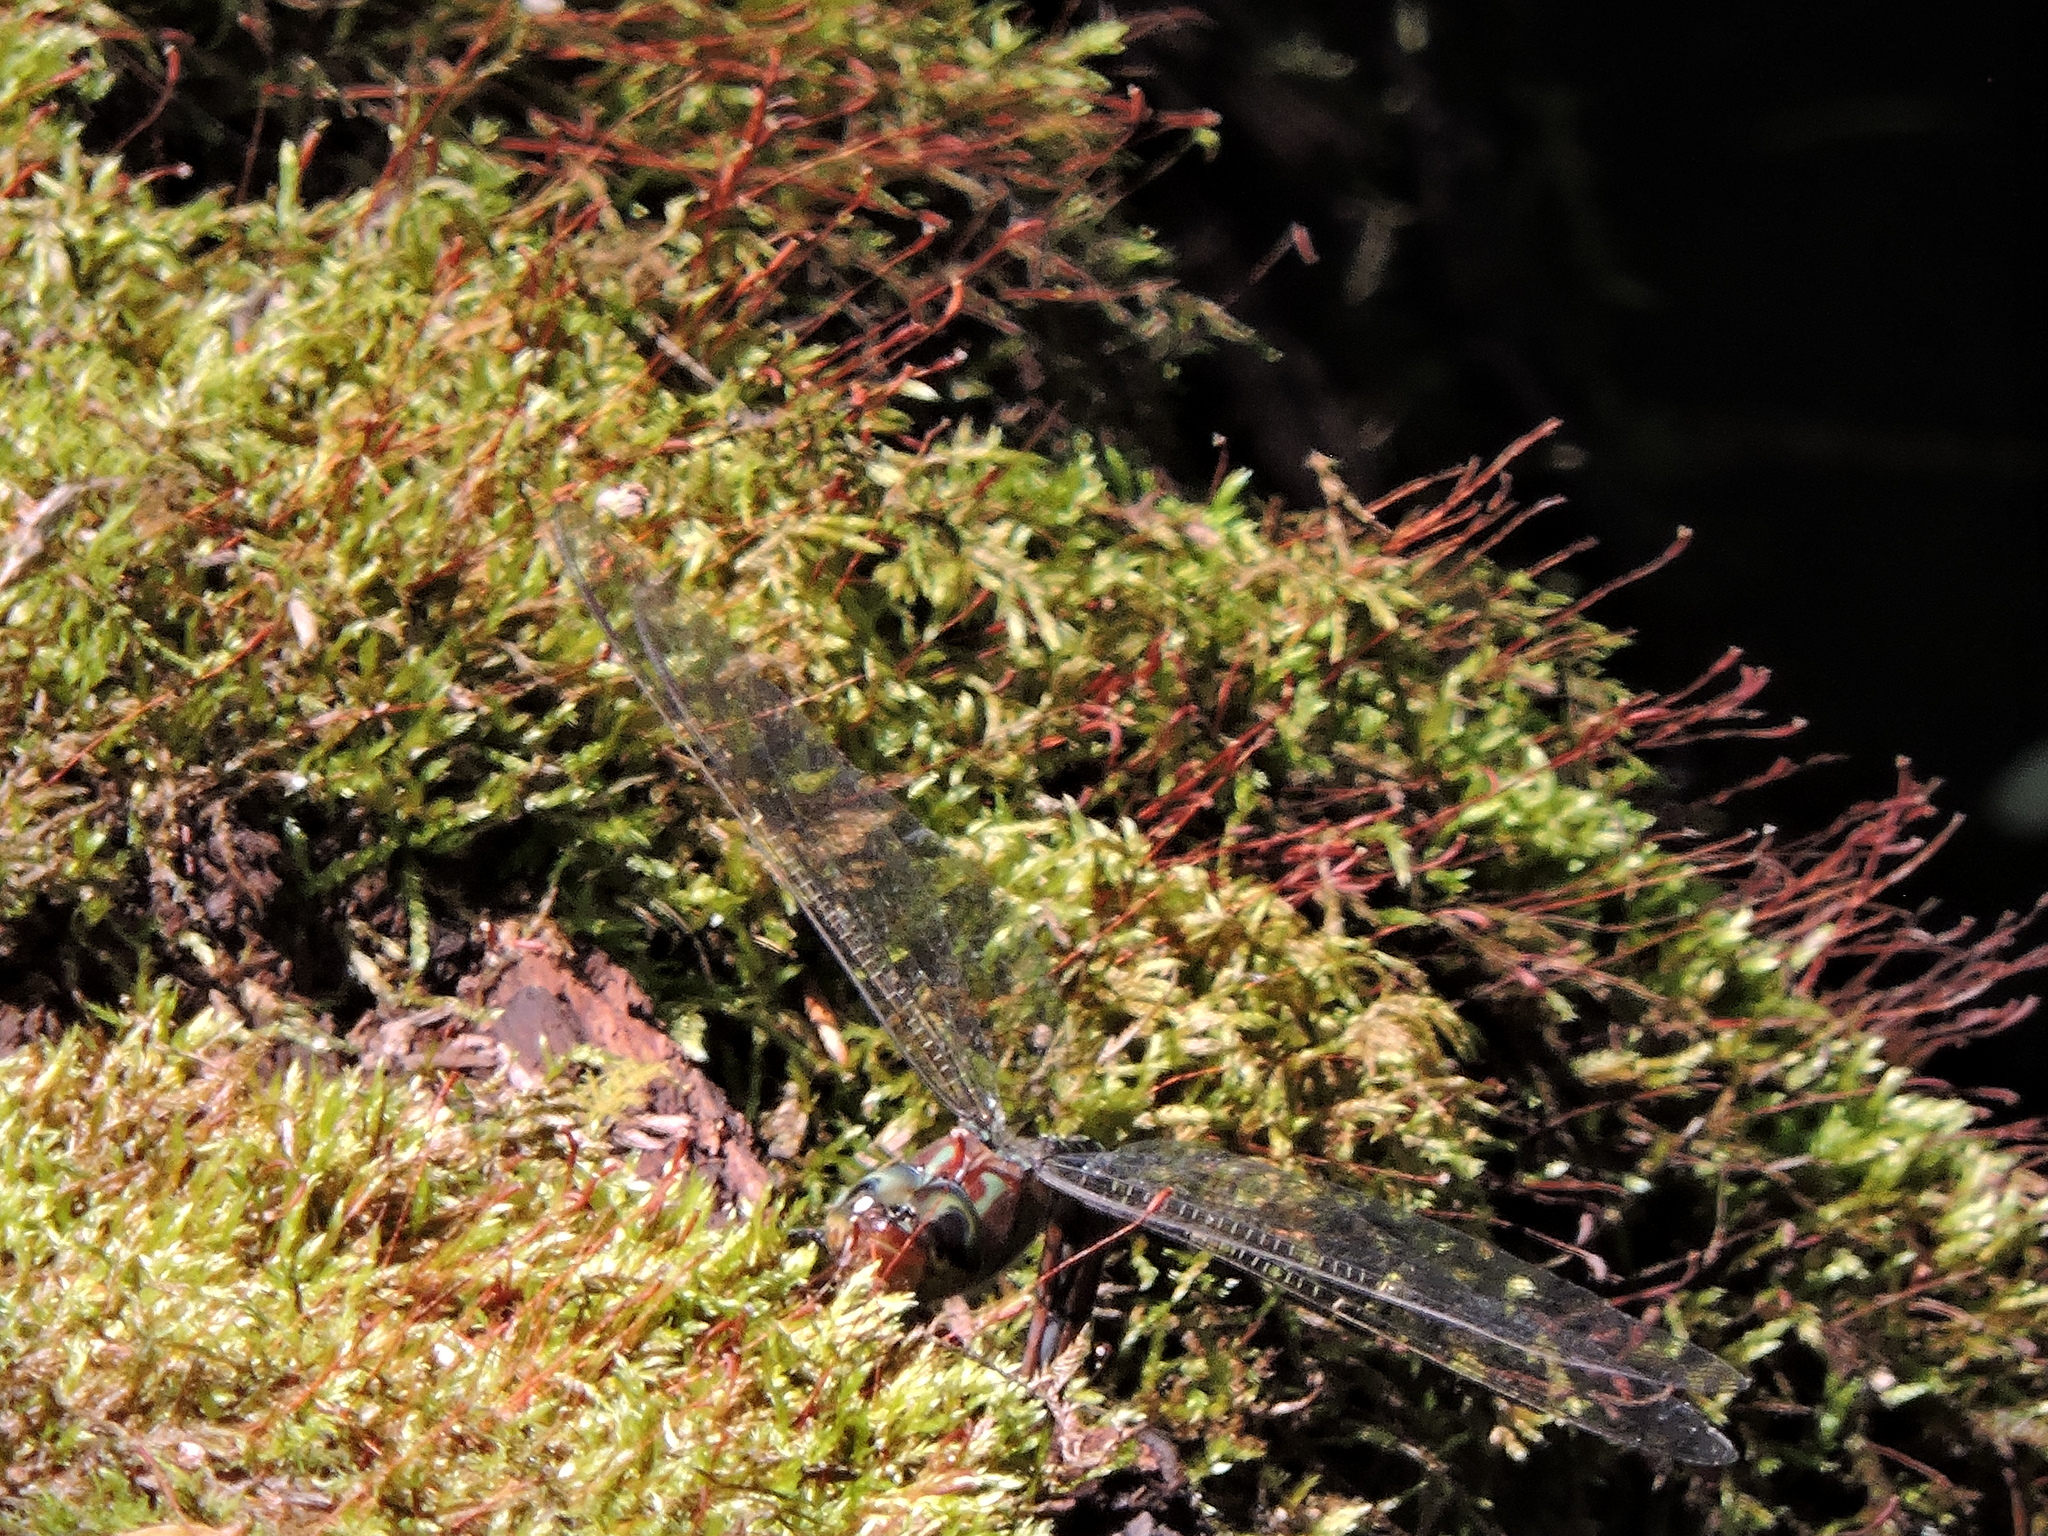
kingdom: Animalia
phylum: Arthropoda
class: Insecta
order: Odonata
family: Aeshnidae
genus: Epiaeschna
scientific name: Epiaeschna heros
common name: Swamp darner
